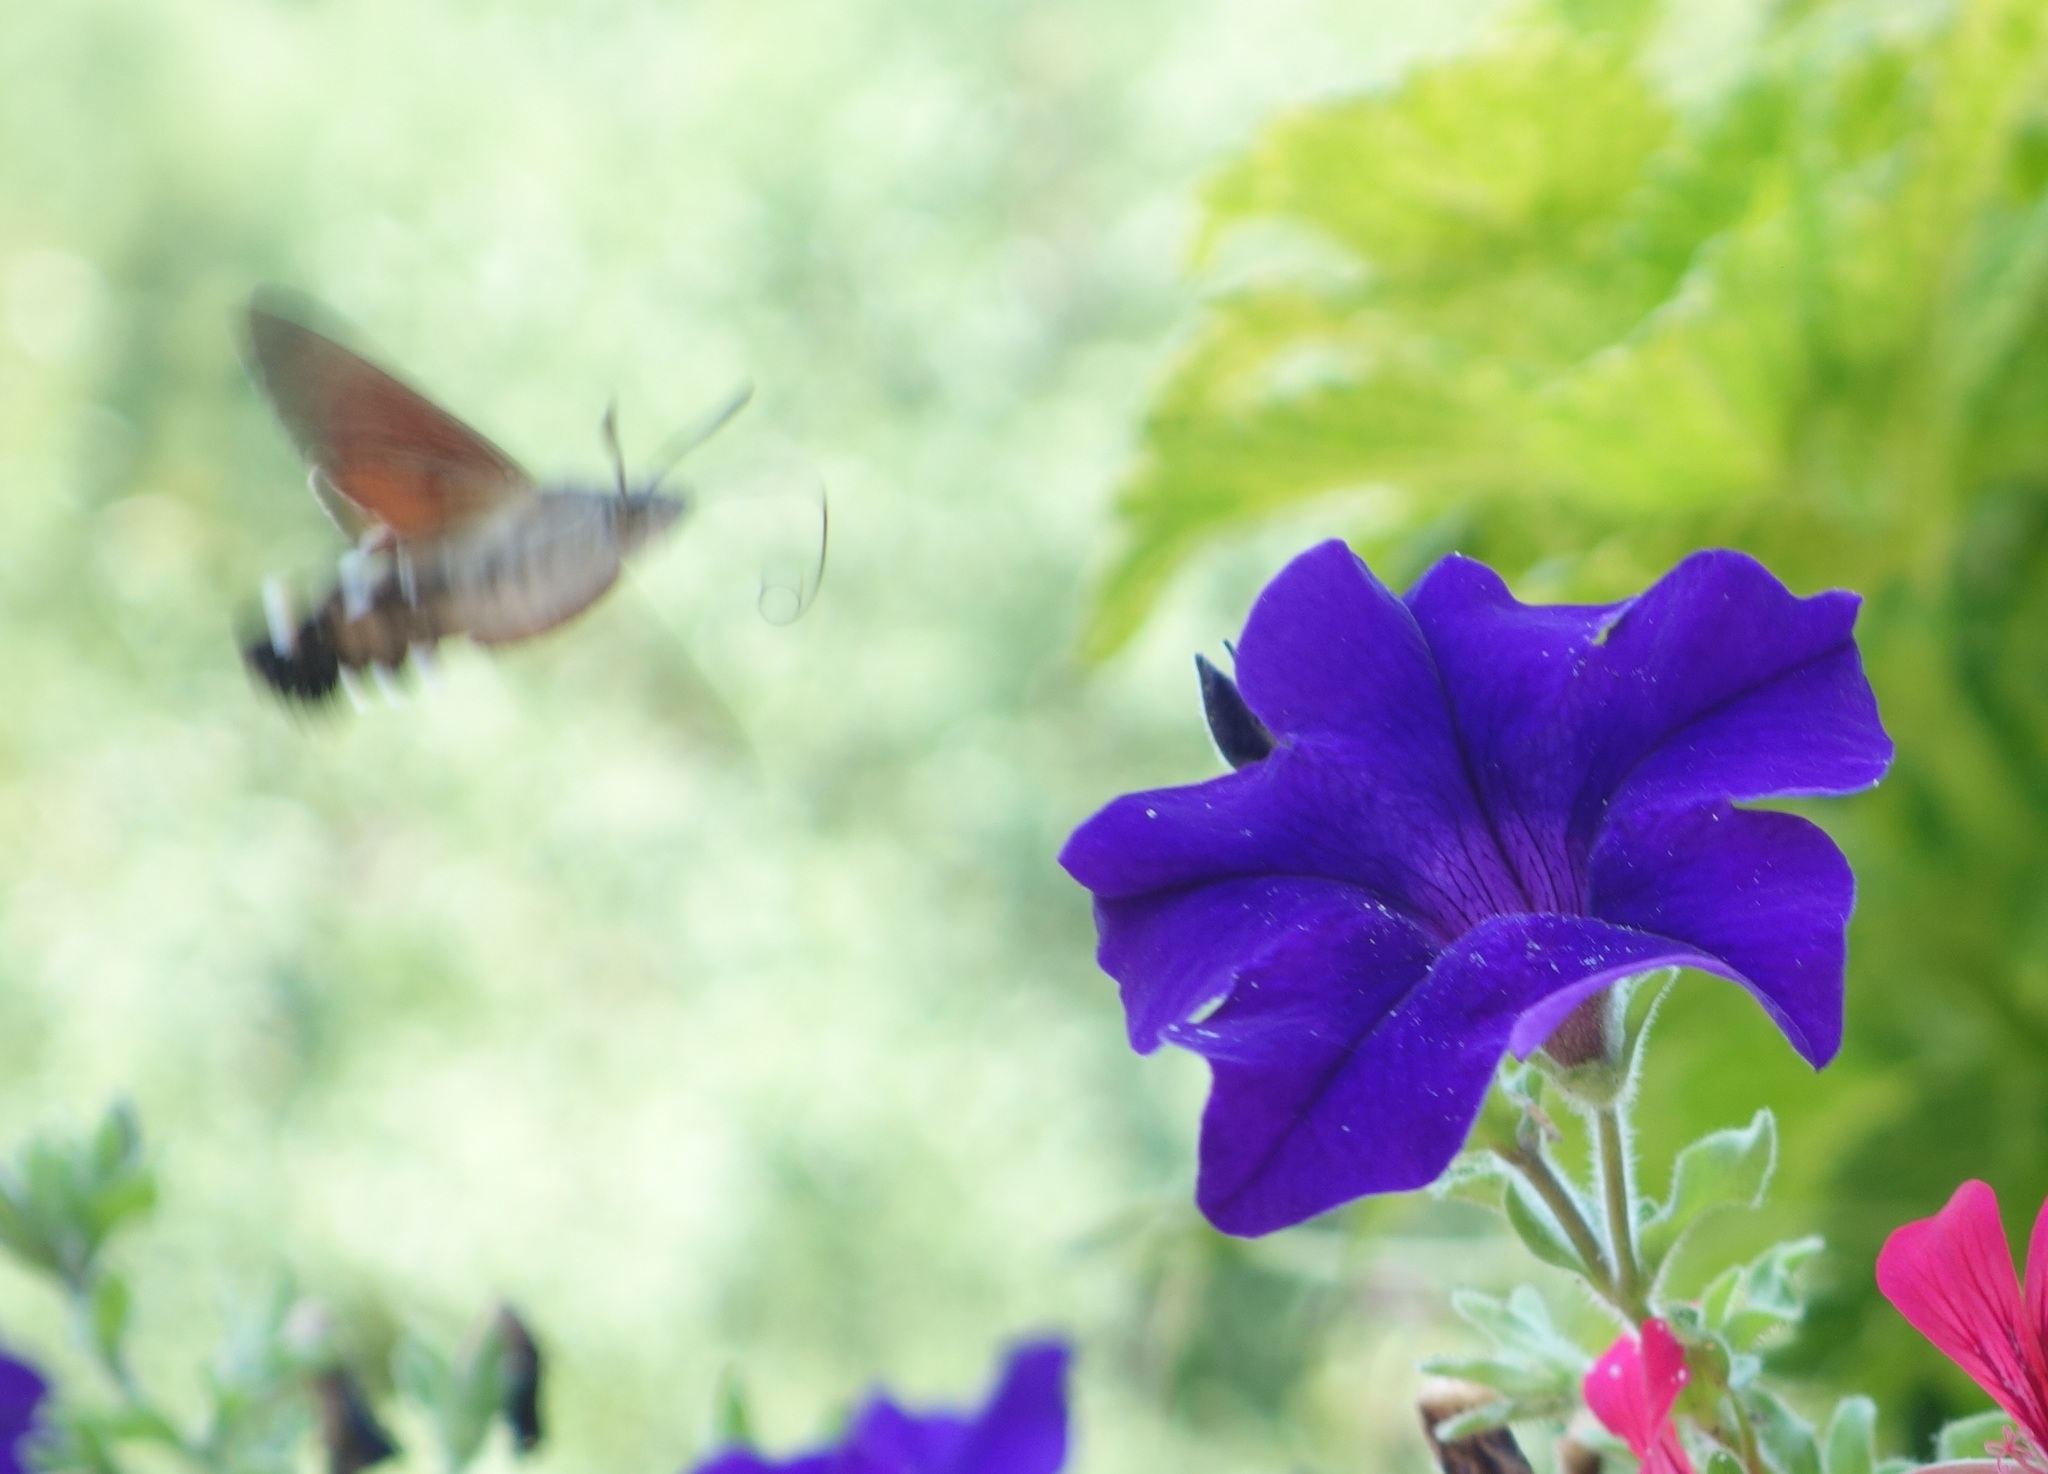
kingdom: Animalia
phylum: Arthropoda
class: Insecta
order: Lepidoptera
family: Sphingidae
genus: Macroglossum
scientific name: Macroglossum stellatarum
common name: Humming-bird hawk-moth
